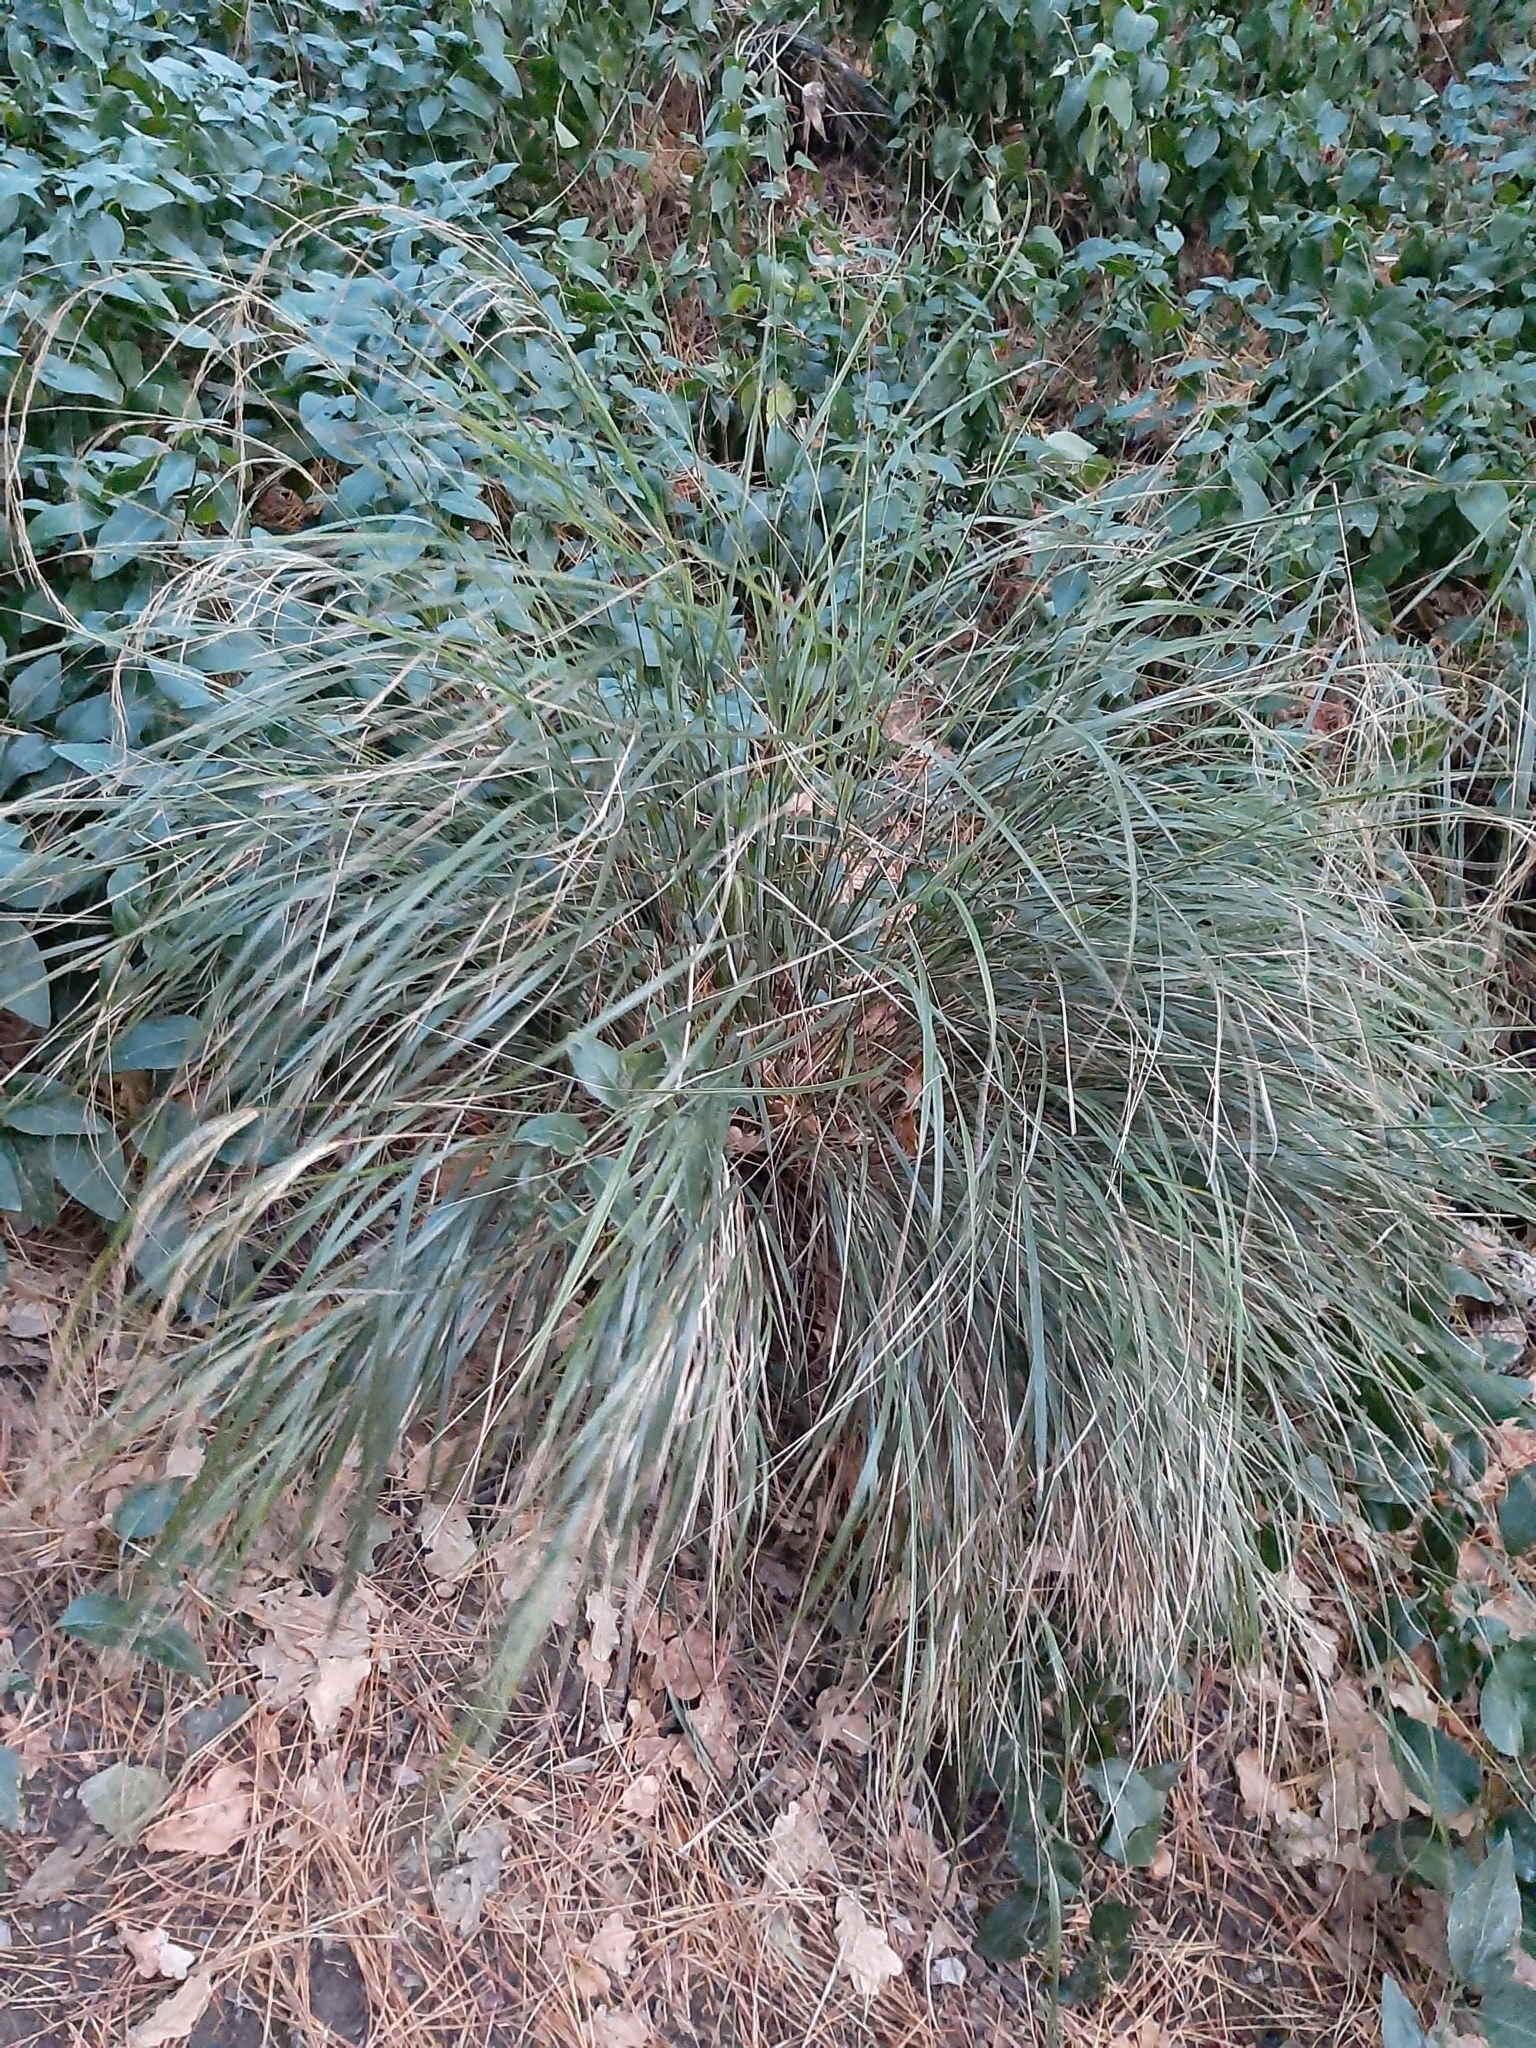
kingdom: Plantae
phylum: Tracheophyta
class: Liliopsida
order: Poales
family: Poaceae
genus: Anemanthele
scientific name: Anemanthele lessoniana
